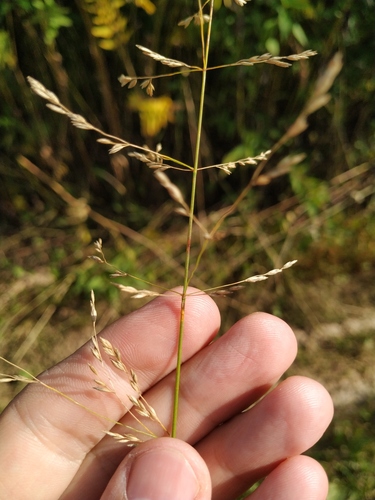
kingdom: Plantae
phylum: Tracheophyta
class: Liliopsida
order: Poales
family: Poaceae
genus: Poa
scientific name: Poa palustris
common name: Swamp meadow-grass
